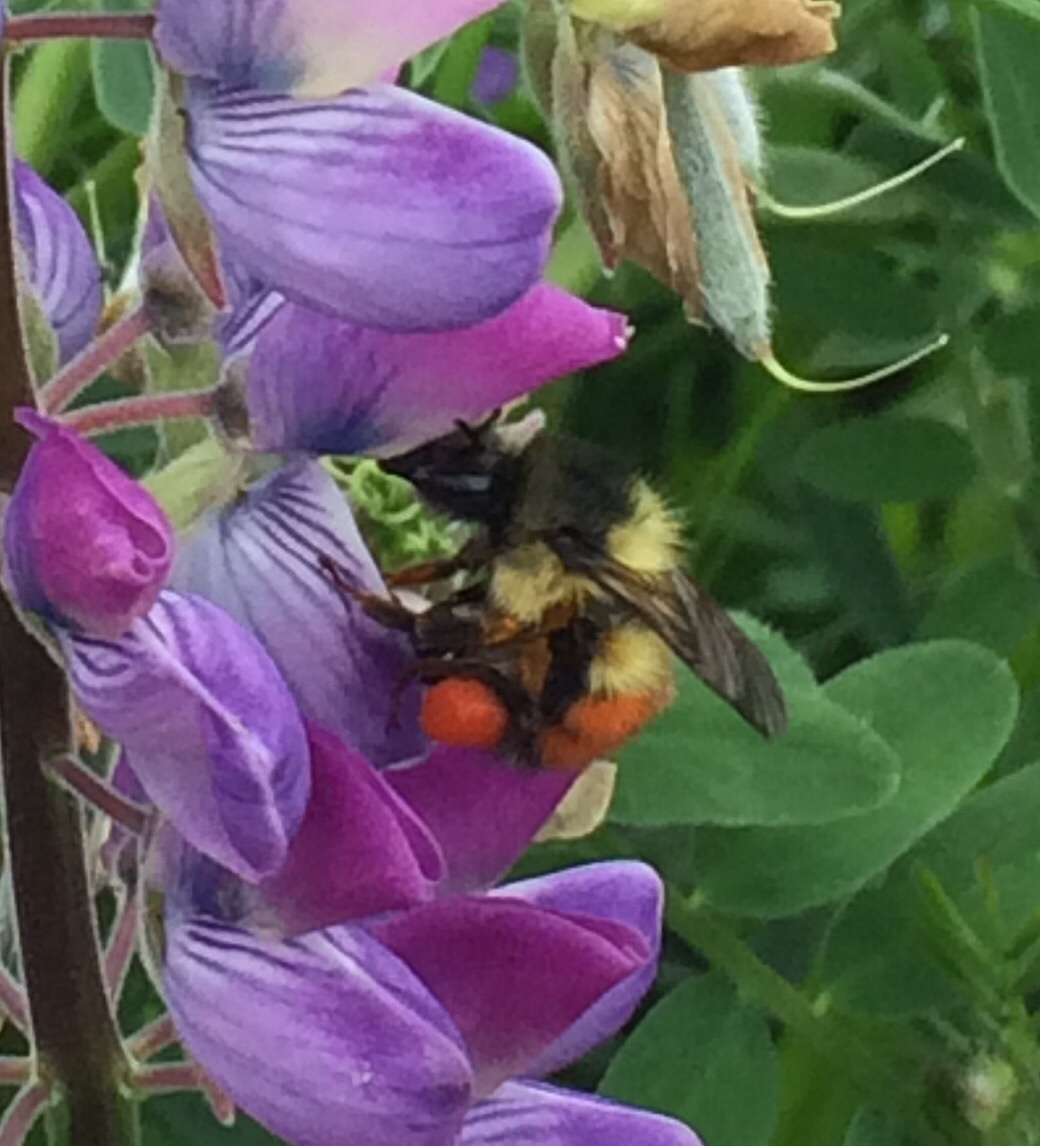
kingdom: Animalia
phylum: Arthropoda
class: Insecta
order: Hymenoptera
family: Apidae
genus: Bombus
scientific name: Bombus melanopygus
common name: Black tail bumble bee
